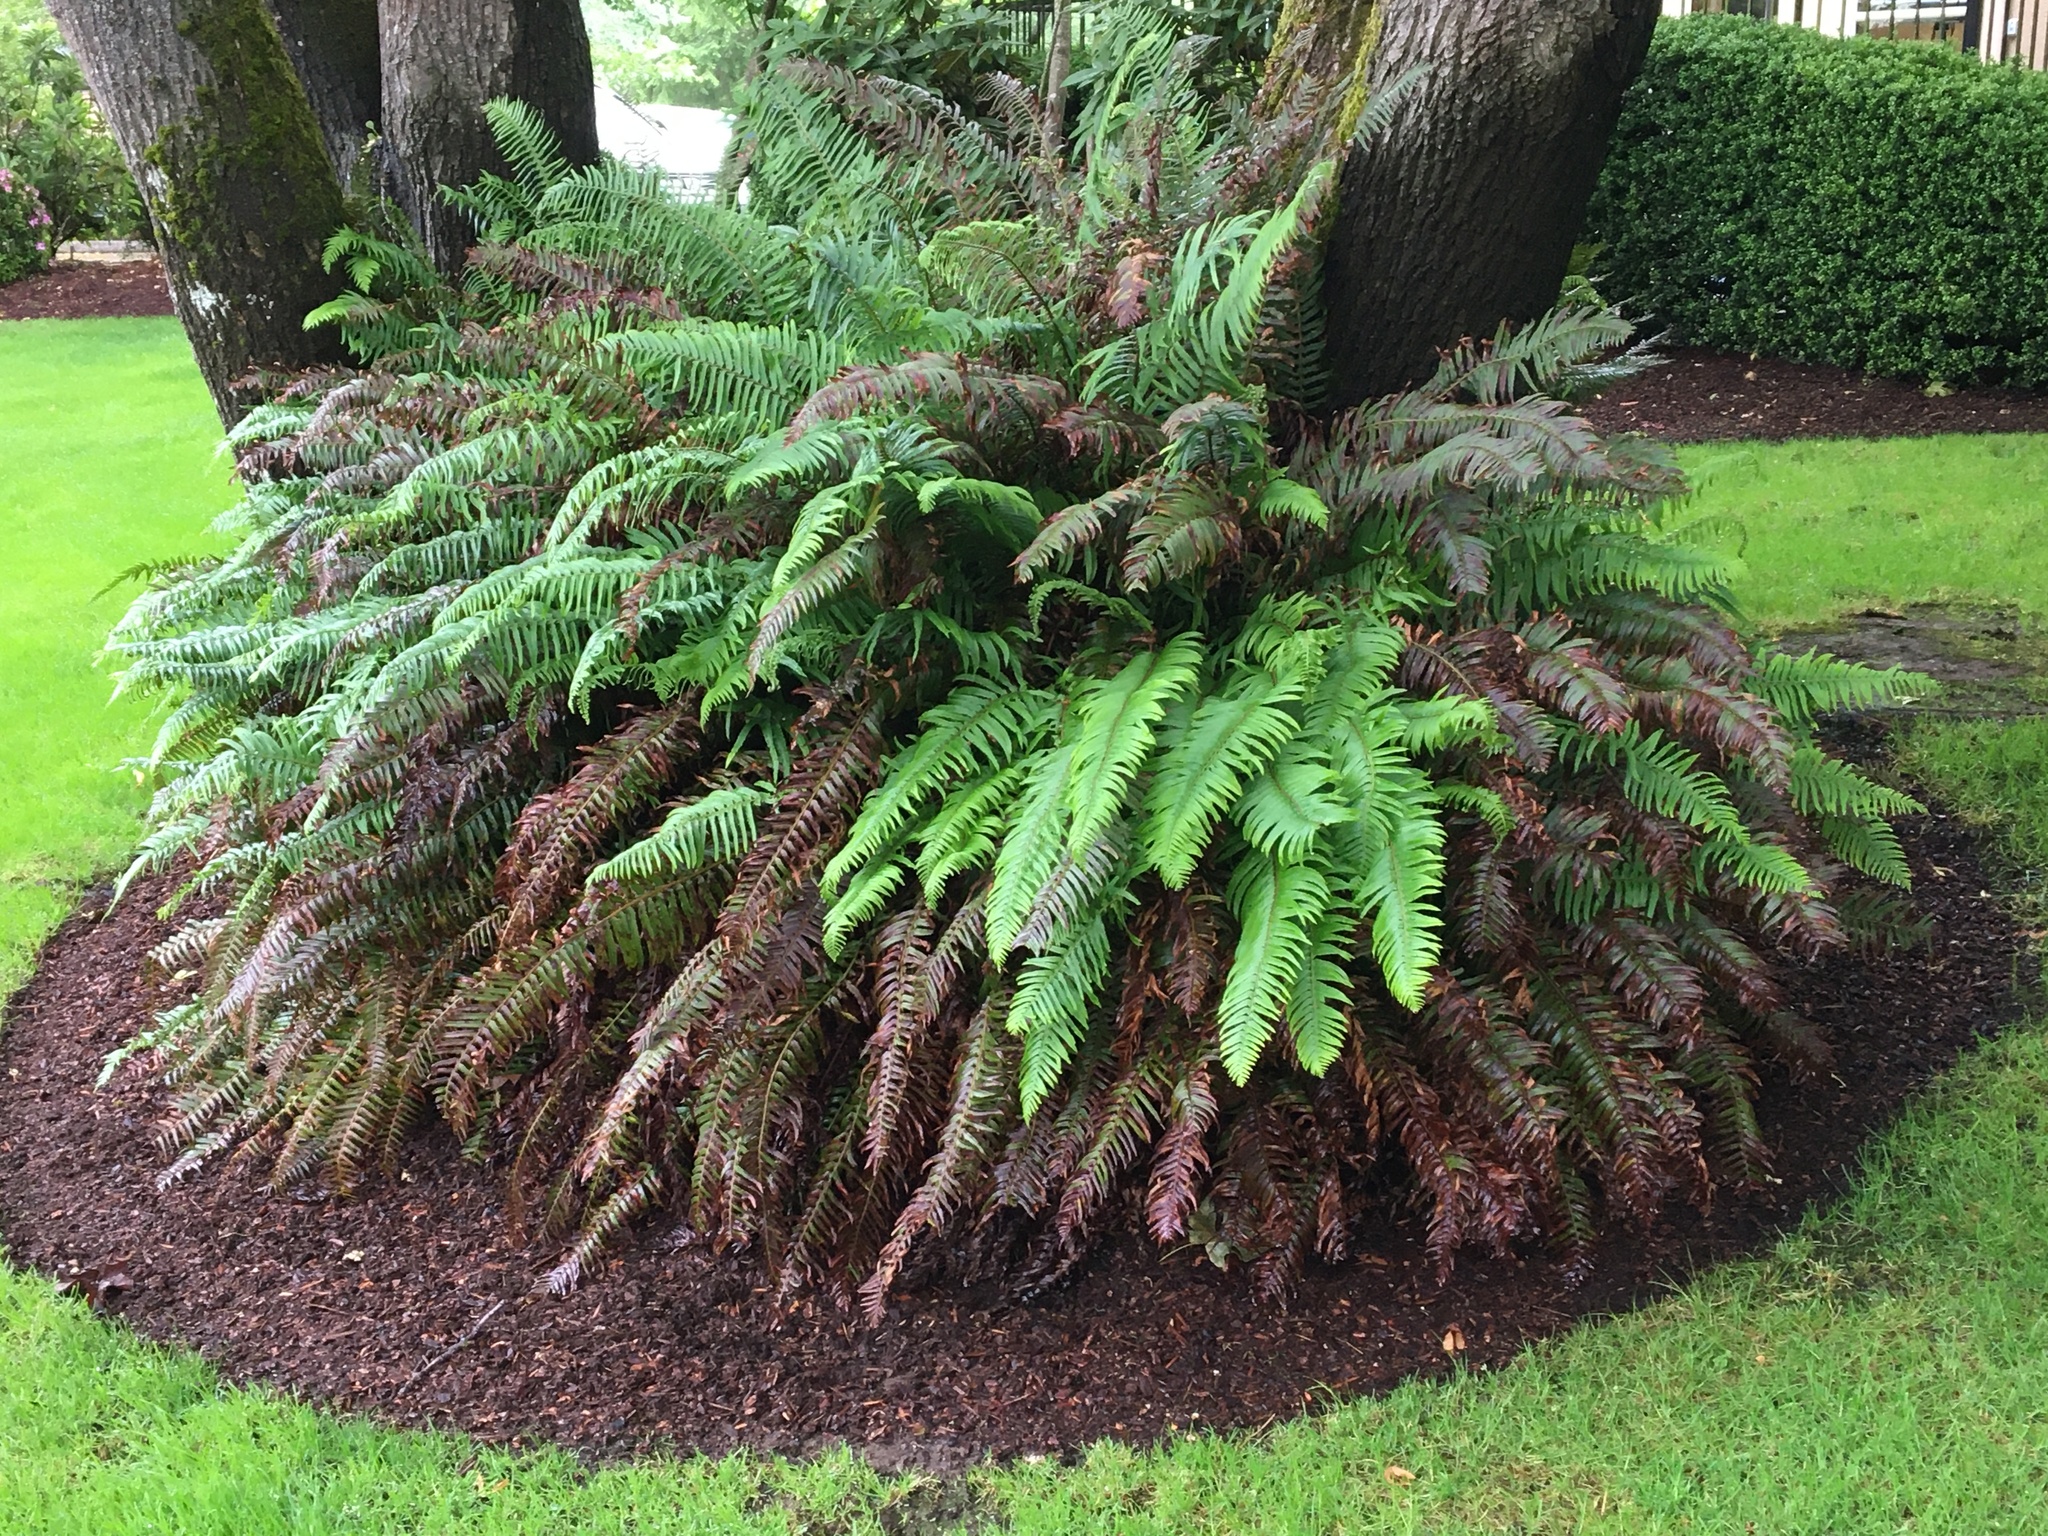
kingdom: Plantae
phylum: Tracheophyta
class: Polypodiopsida
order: Polypodiales
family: Dryopteridaceae
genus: Polystichum
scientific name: Polystichum munitum
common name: Western sword-fern
